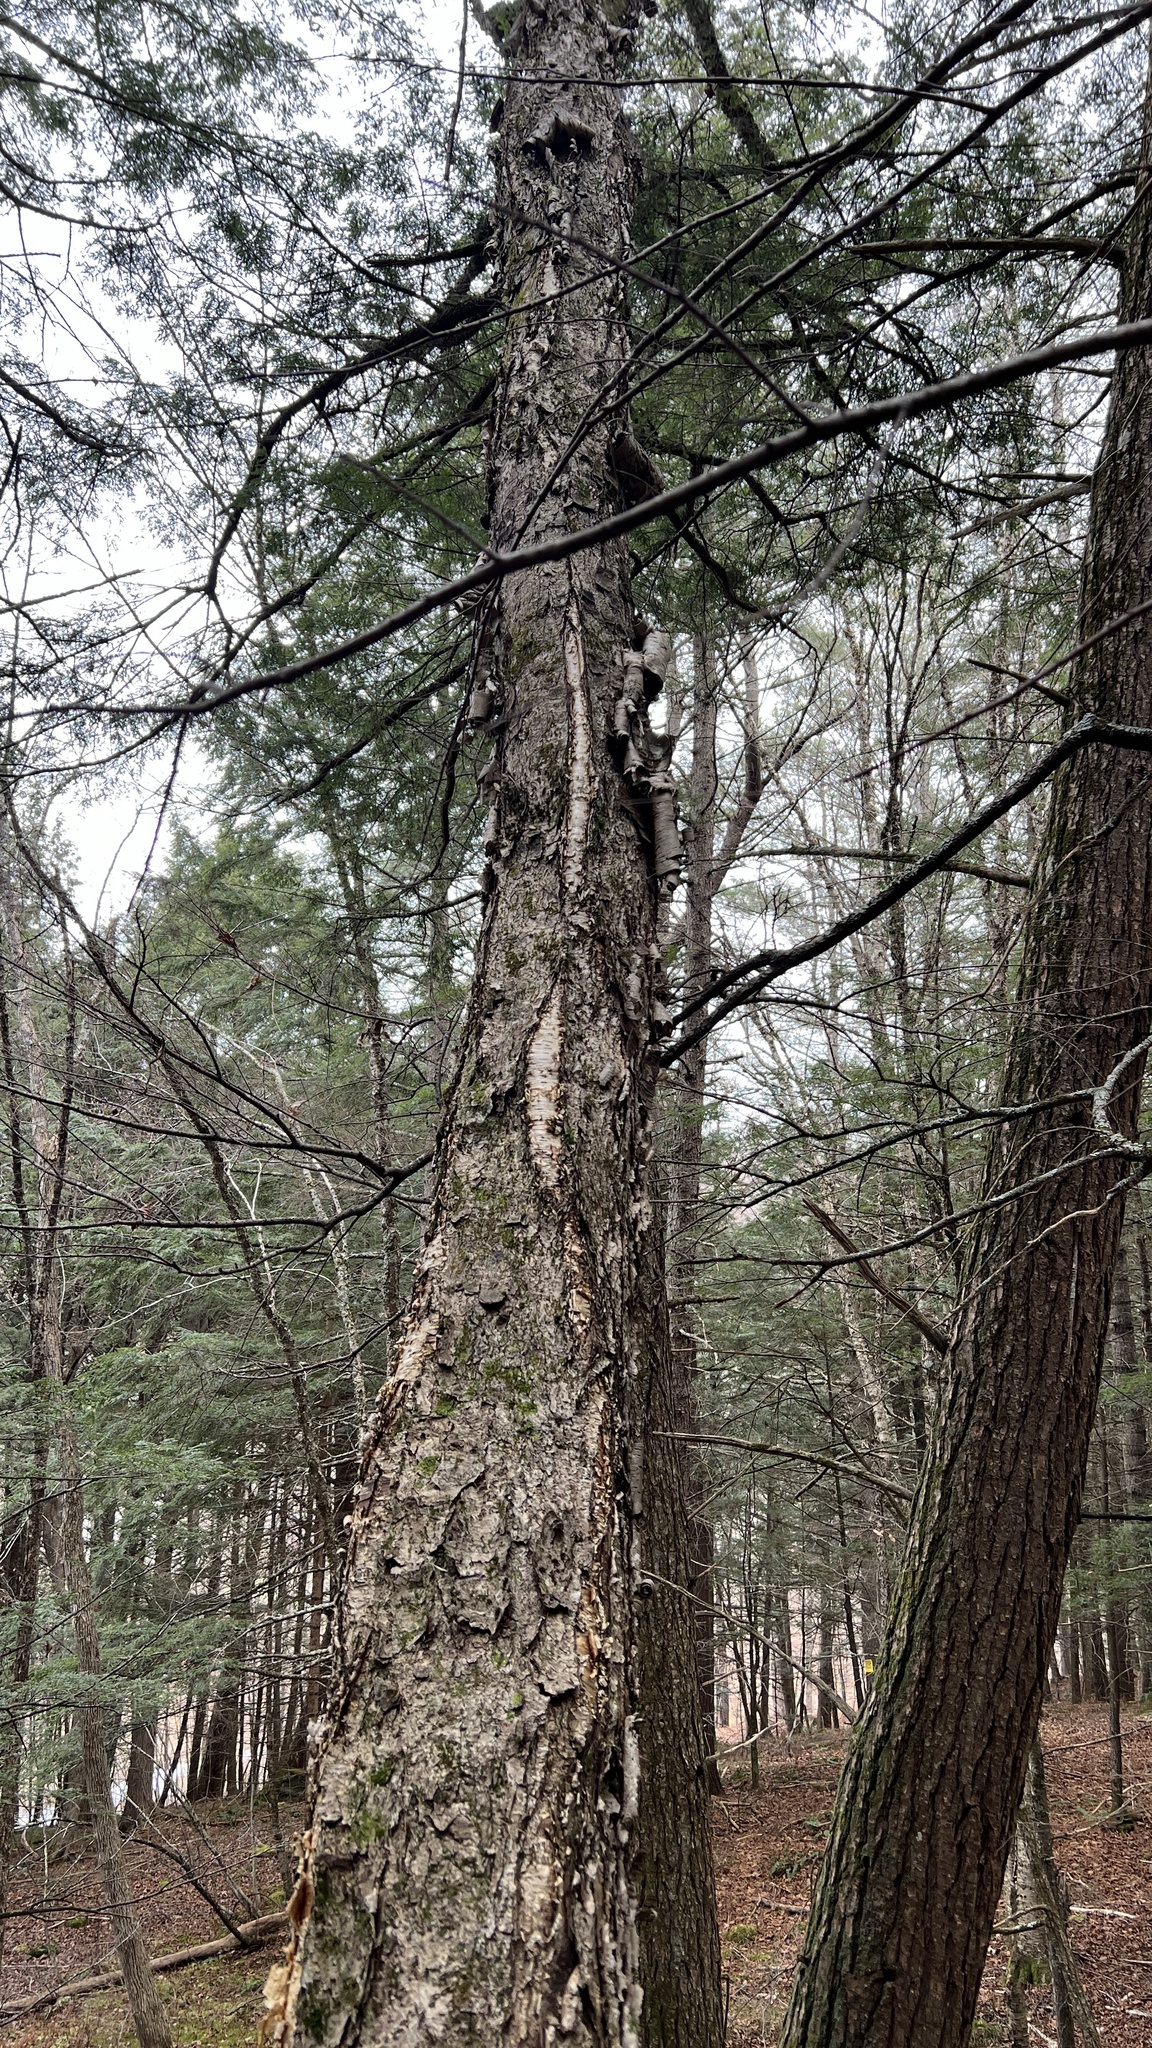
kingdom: Plantae
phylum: Tracheophyta
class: Magnoliopsida
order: Fagales
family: Betulaceae
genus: Betula
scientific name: Betula alleghaniensis
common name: Yellow birch
